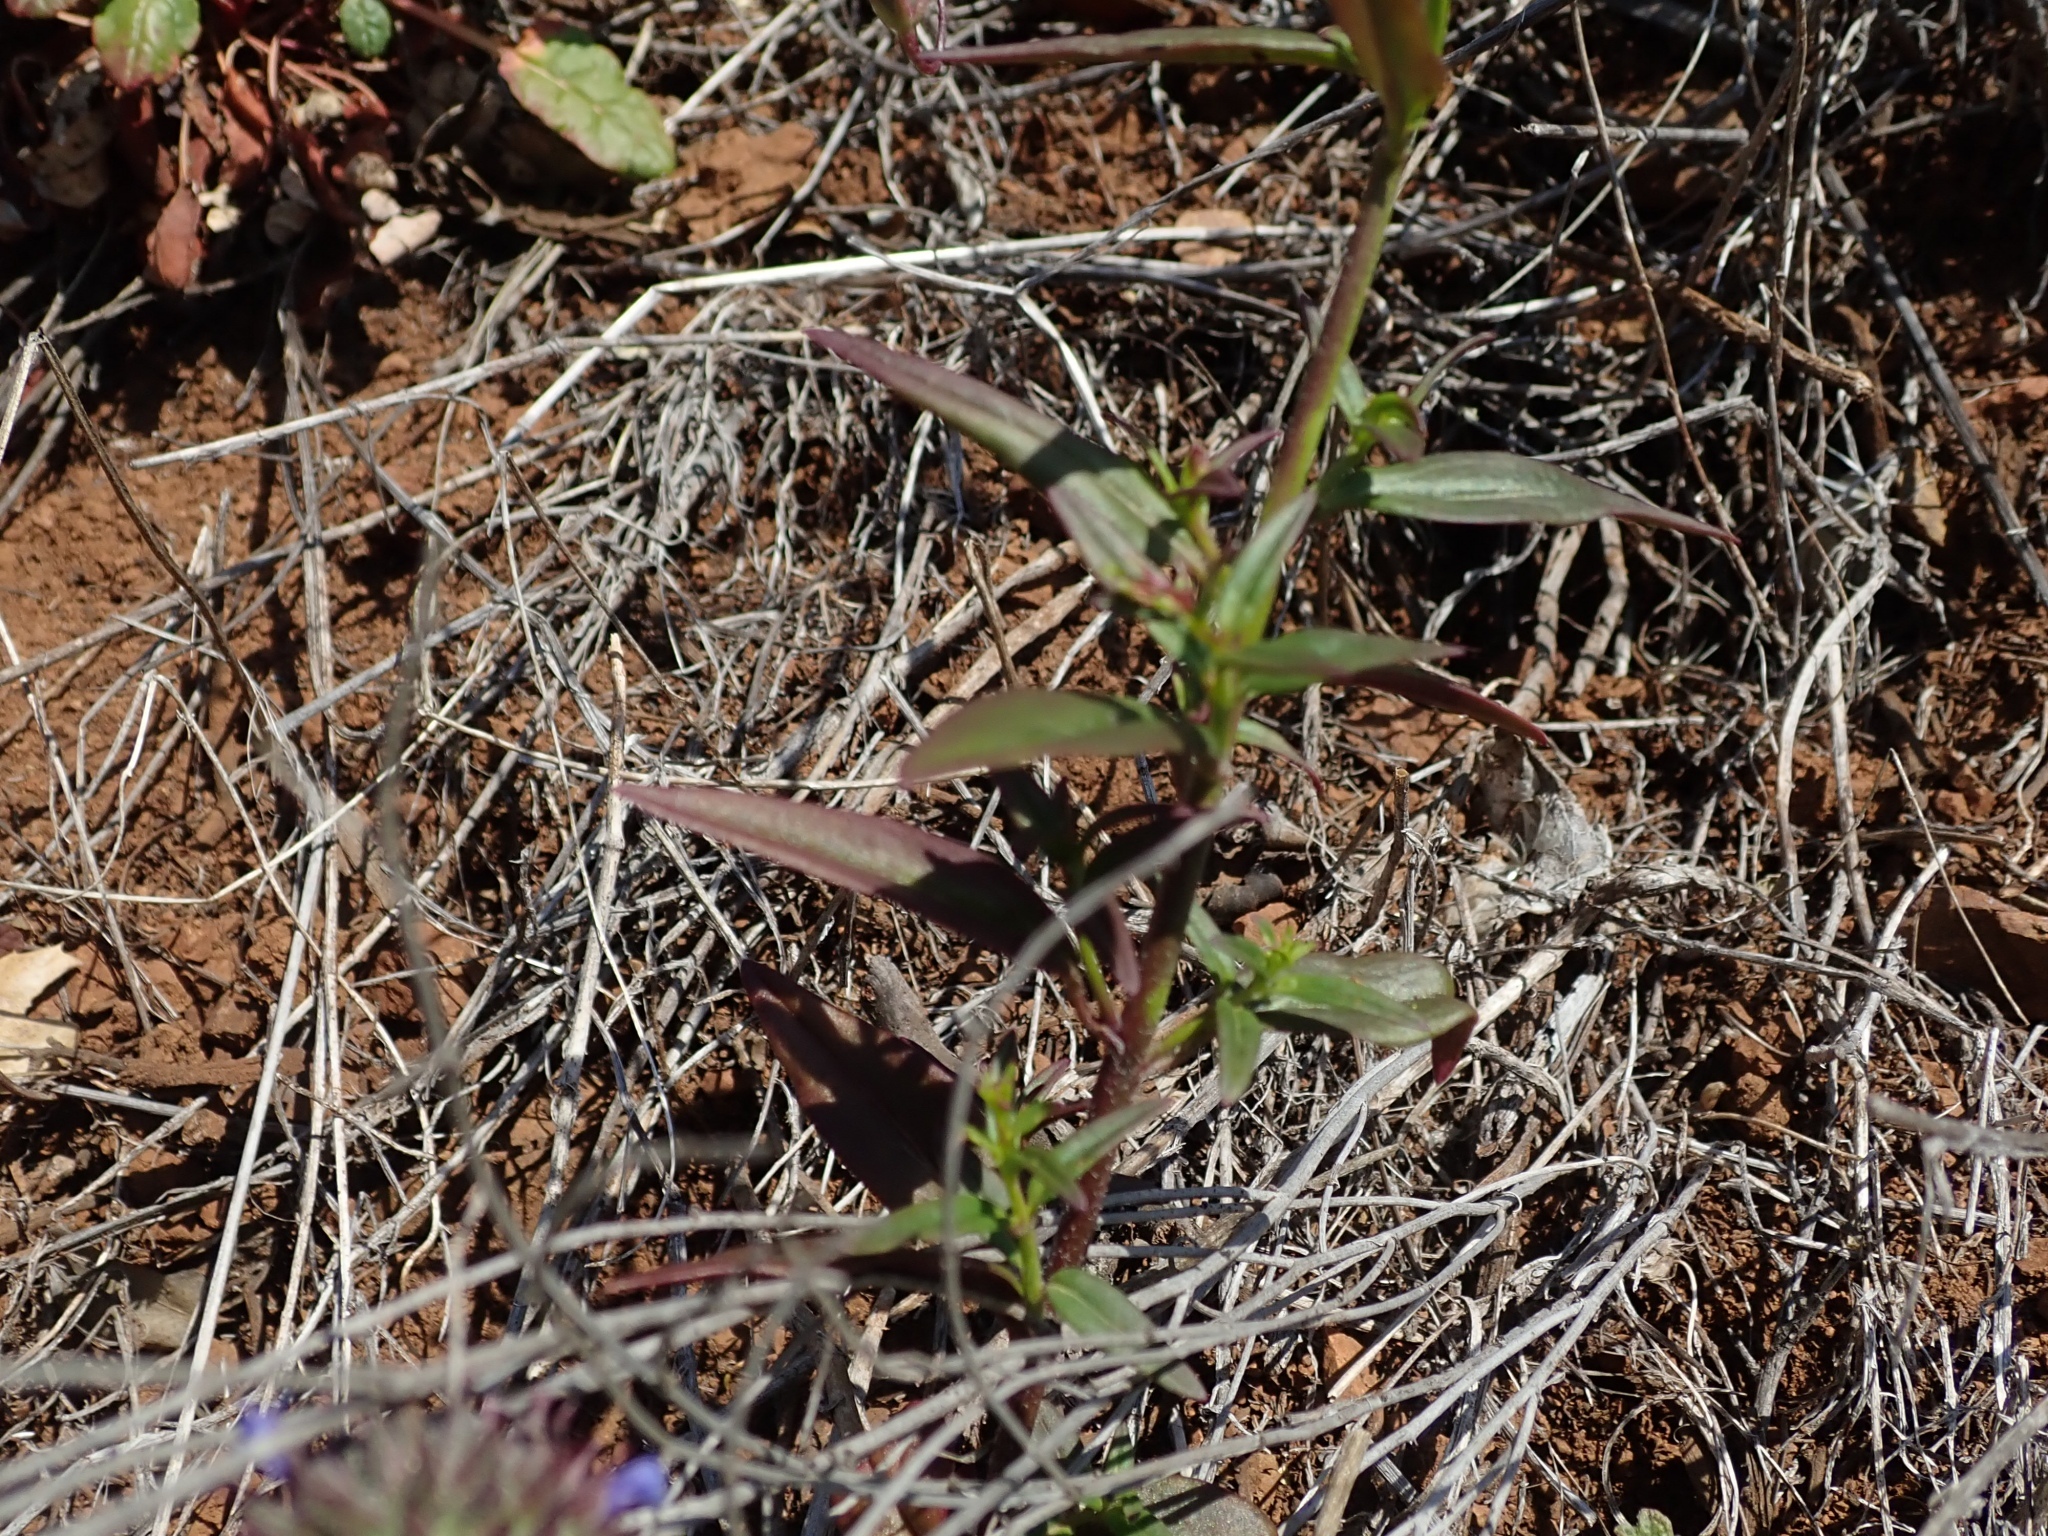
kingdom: Plantae
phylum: Tracheophyta
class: Magnoliopsida
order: Lamiales
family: Plantaginaceae
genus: Neogaerrhinum
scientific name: Neogaerrhinum strictum
